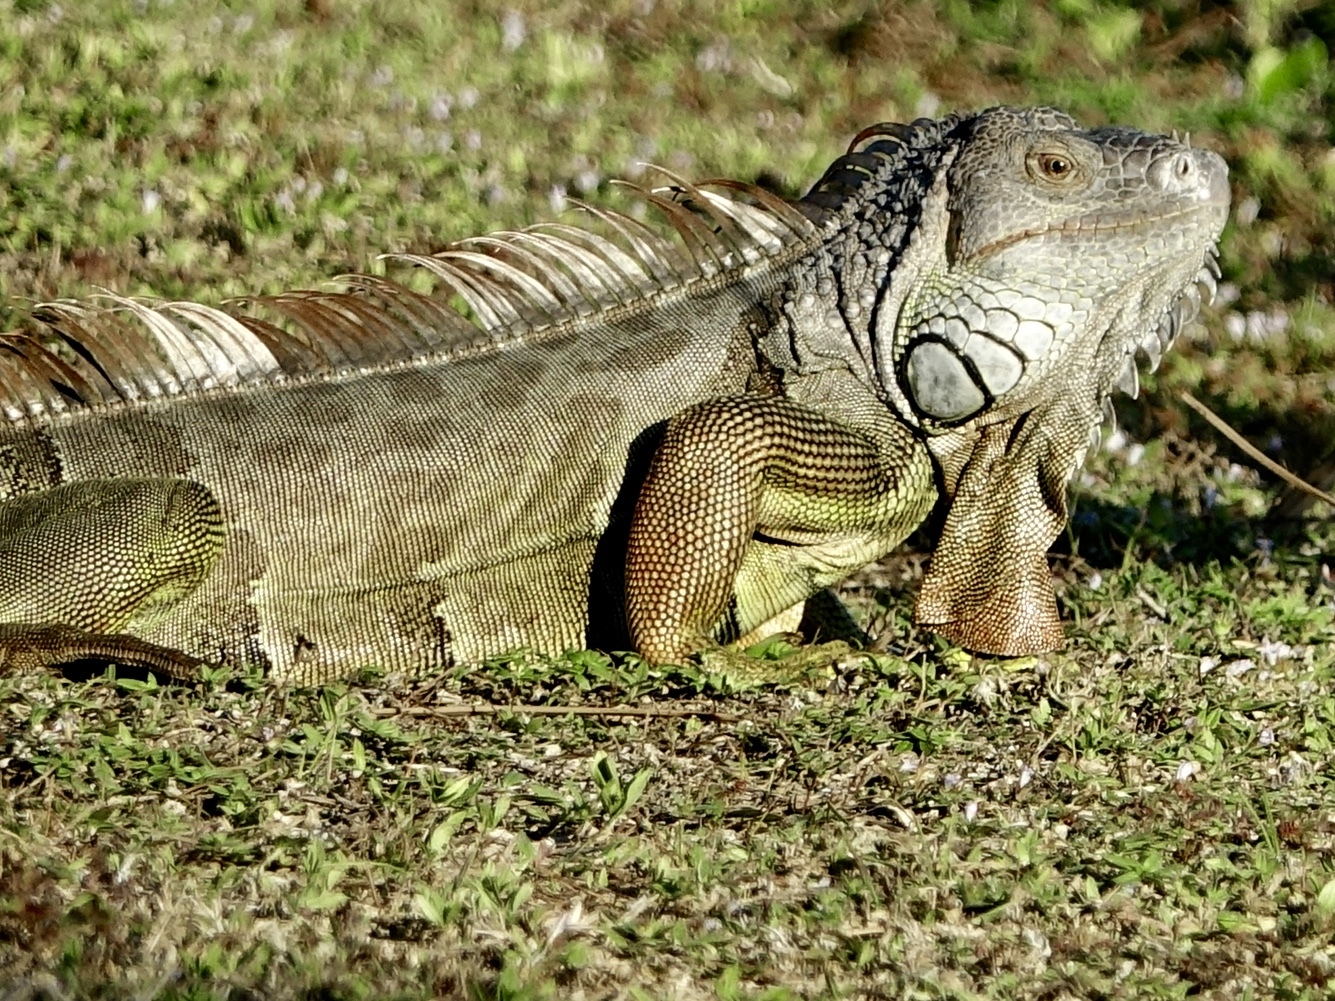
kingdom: Animalia
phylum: Chordata
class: Squamata
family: Iguanidae
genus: Iguana
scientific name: Iguana iguana
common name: Green iguana
